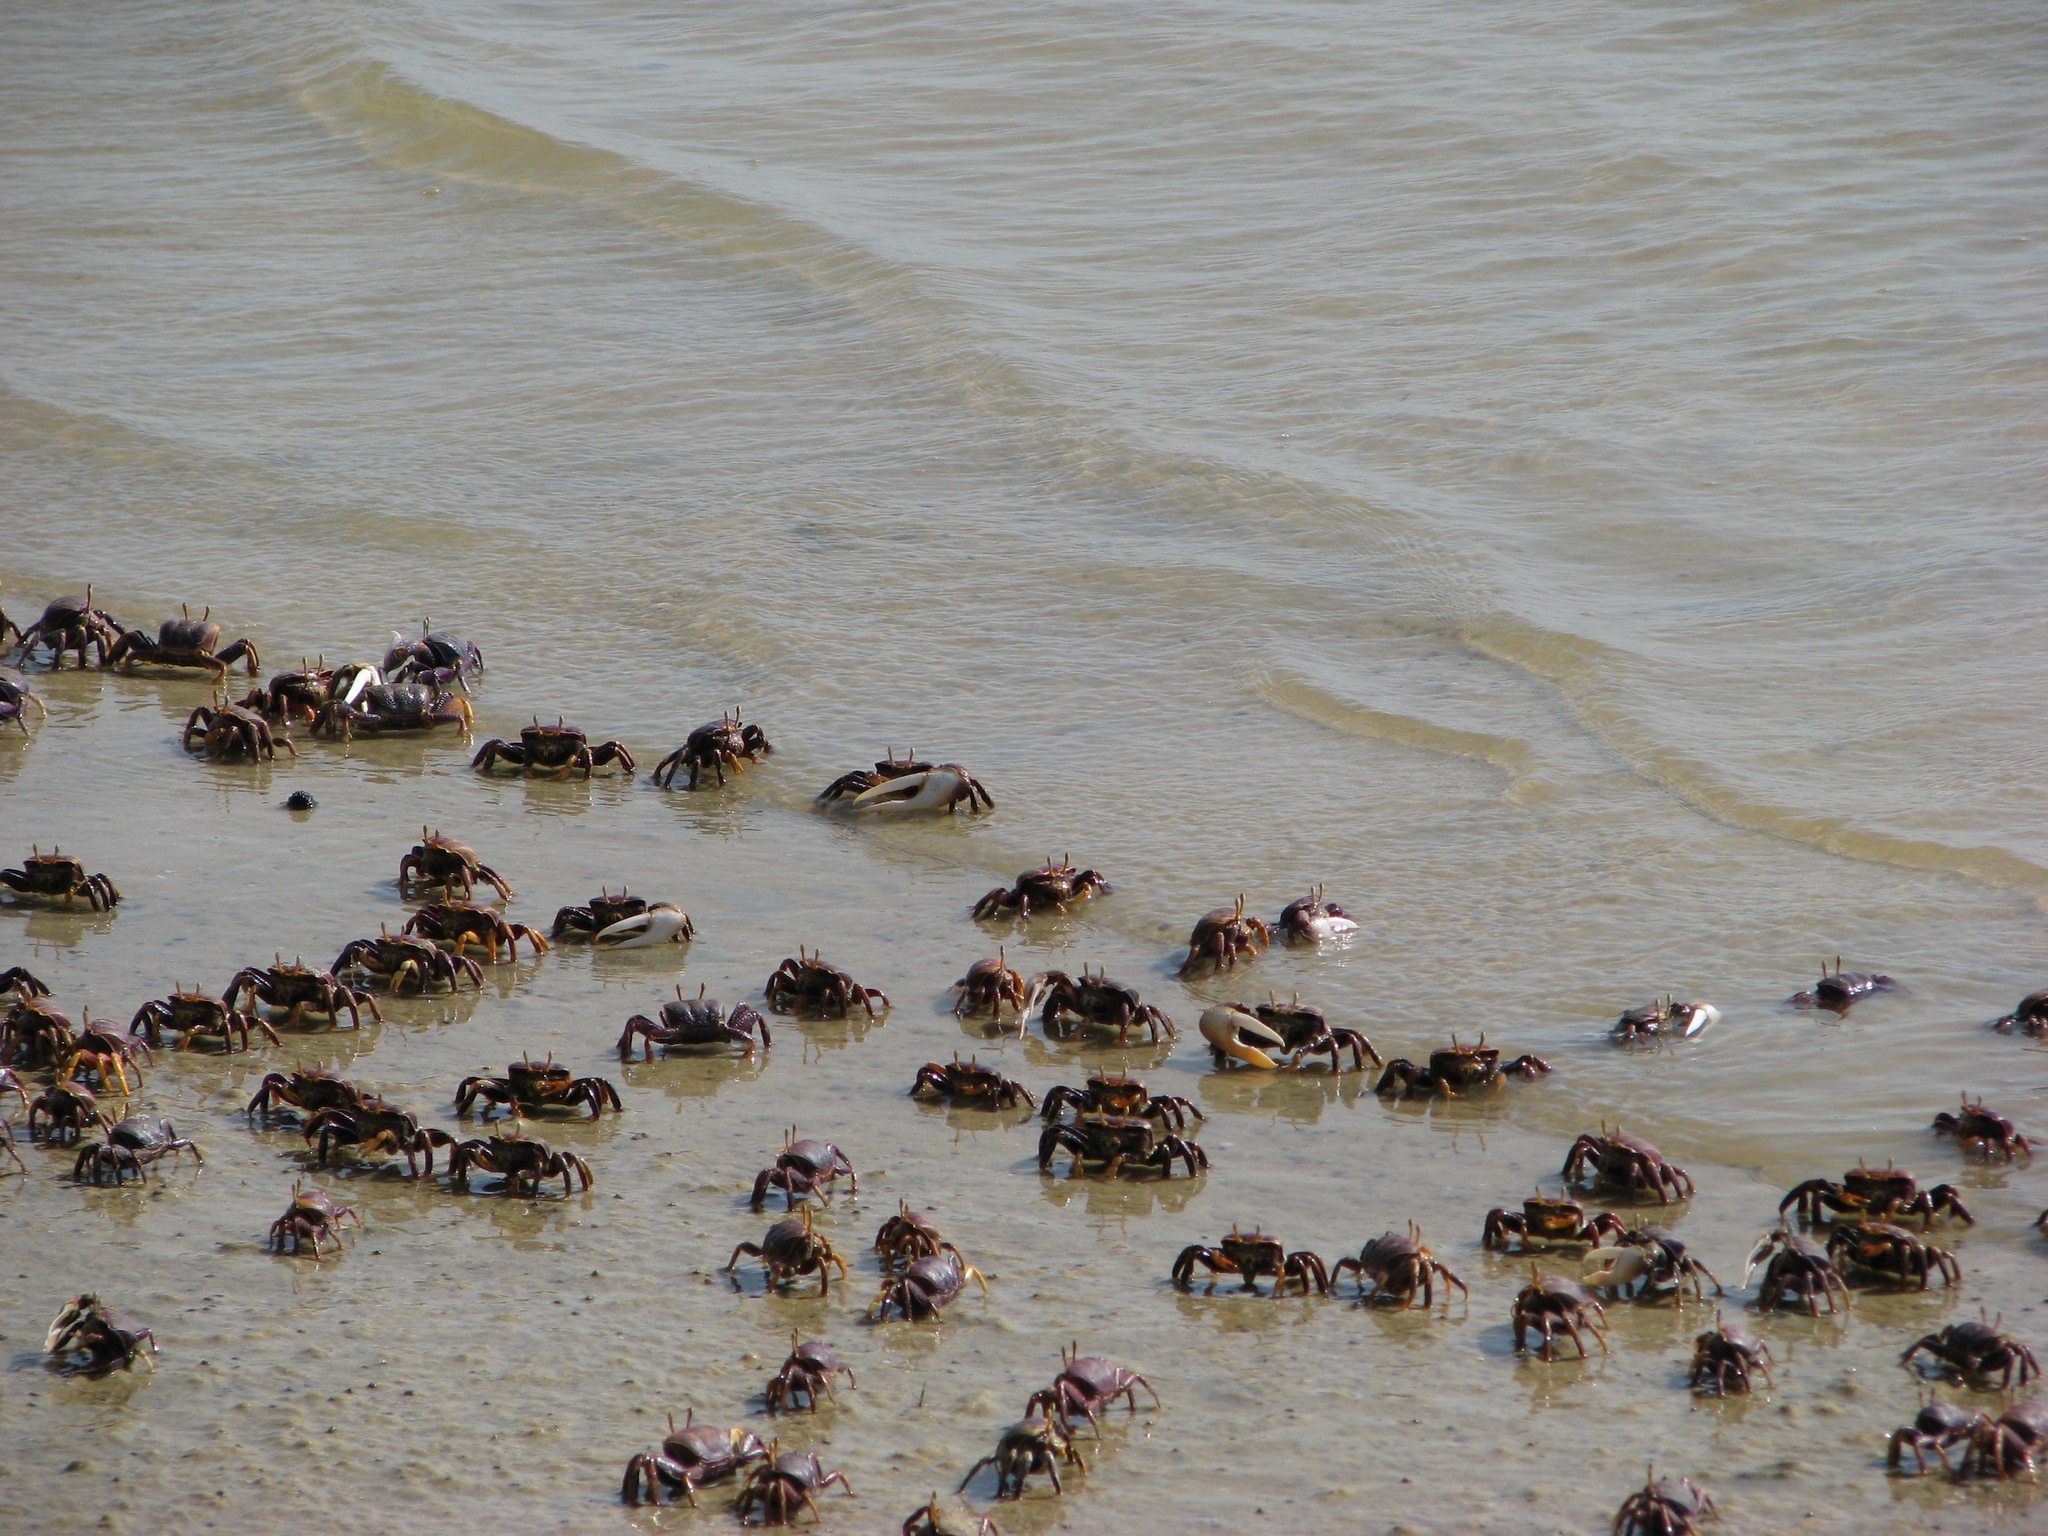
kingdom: Animalia
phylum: Arthropoda
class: Malacostraca
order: Decapoda
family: Ocypodidae
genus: Afruca
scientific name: Afruca tangeri
